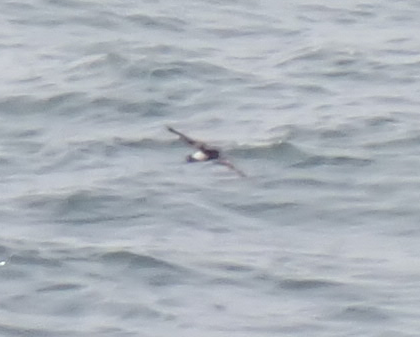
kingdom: Animalia
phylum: Chordata
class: Aves
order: Procellariiformes
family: Hydrobatidae
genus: Oceanites
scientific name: Oceanites oceanicus
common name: Wilson's storm petrel
